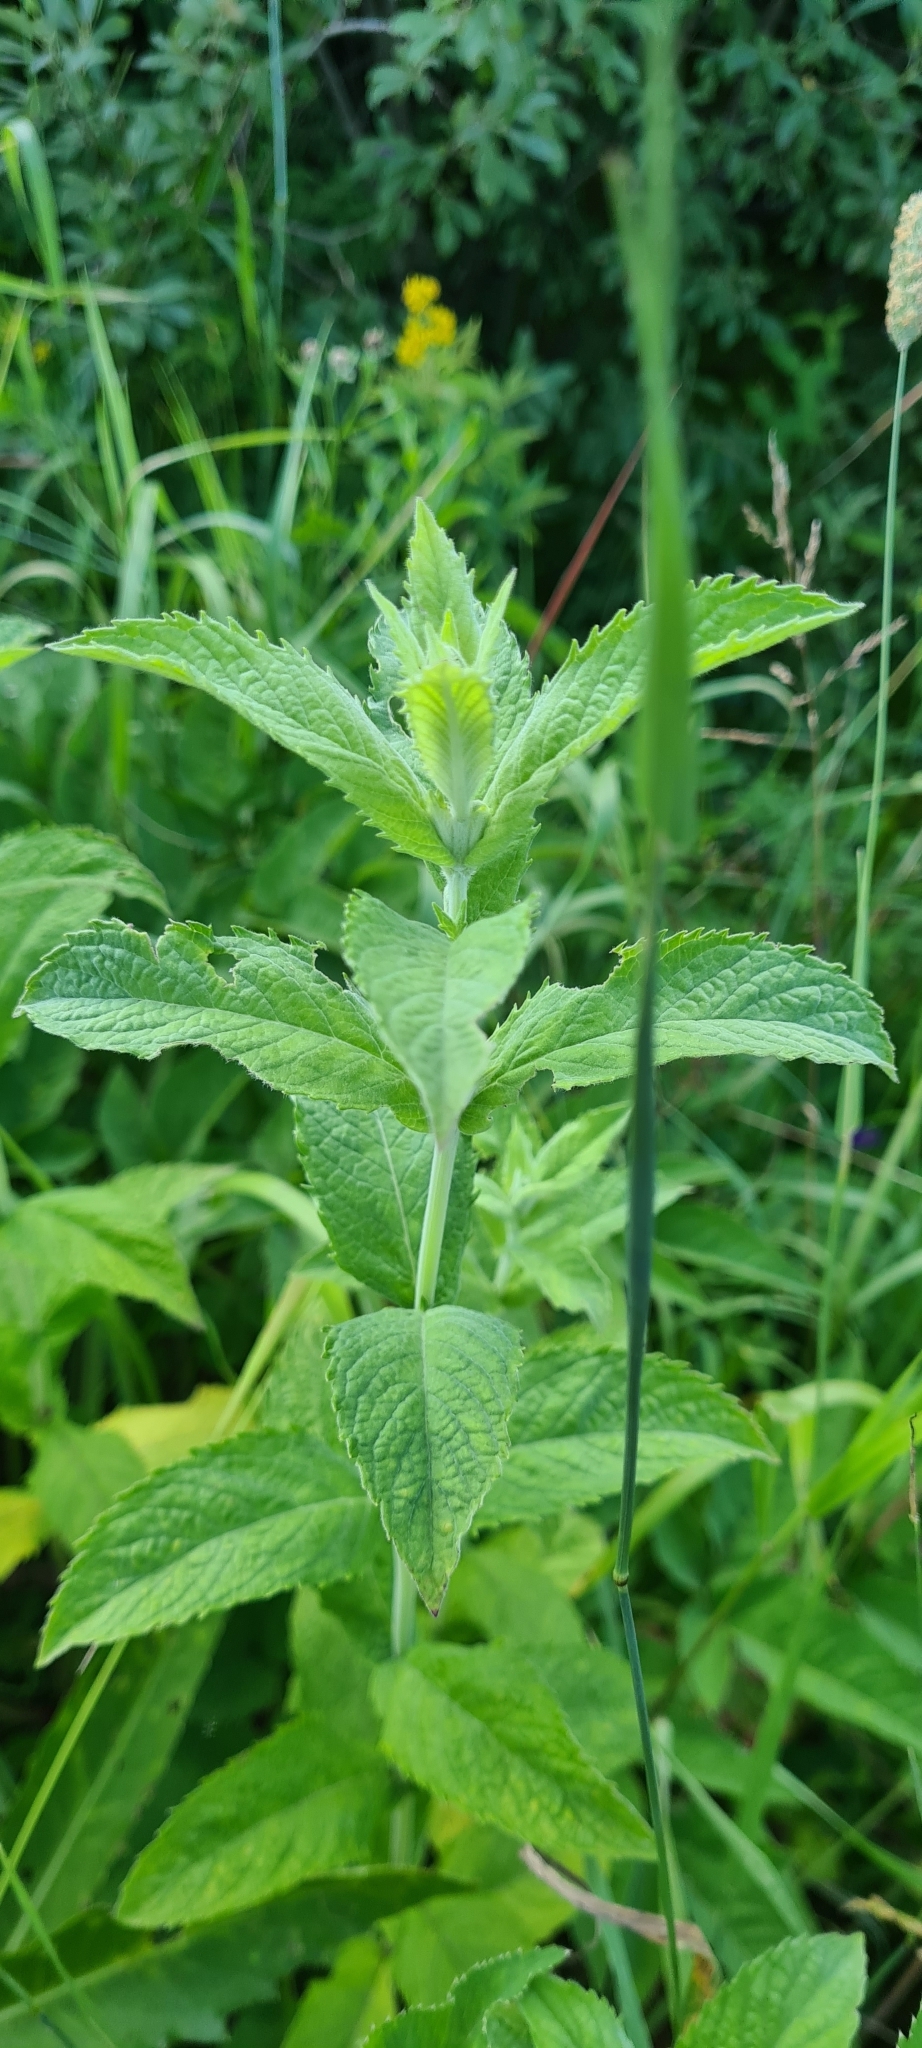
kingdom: Plantae
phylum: Tracheophyta
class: Magnoliopsida
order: Lamiales
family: Lamiaceae
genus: Mentha
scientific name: Mentha longifolia
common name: Horse mint
